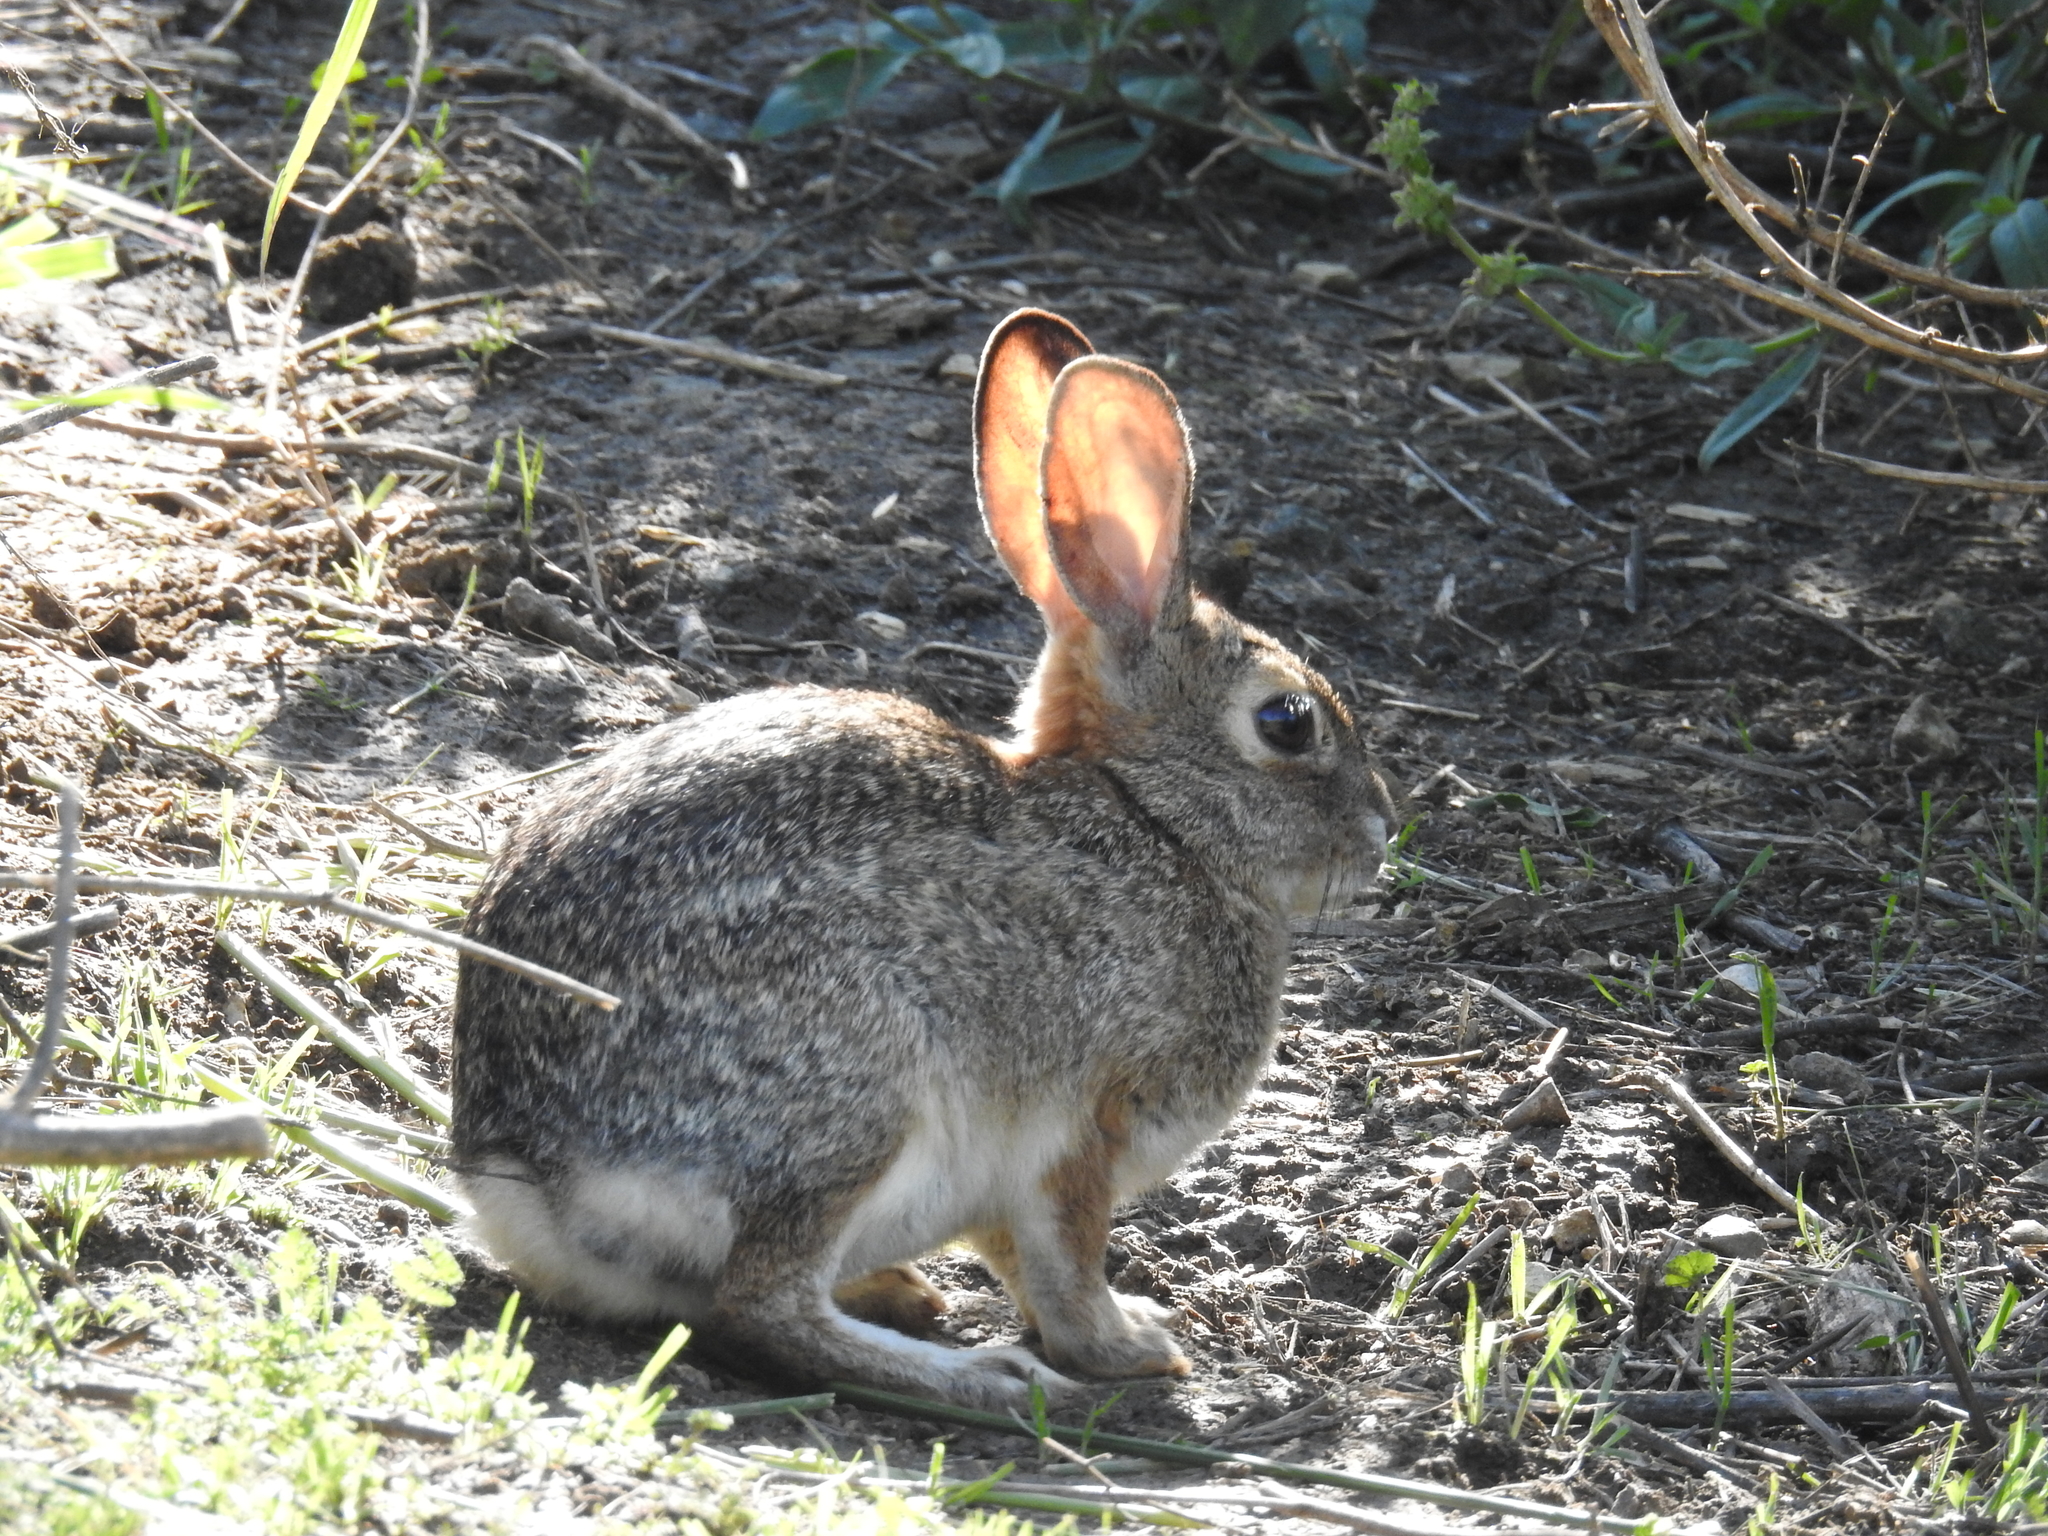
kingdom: Animalia
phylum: Chordata
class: Mammalia
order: Lagomorpha
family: Leporidae
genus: Sylvilagus
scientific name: Sylvilagus audubonii
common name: Desert cottontail
